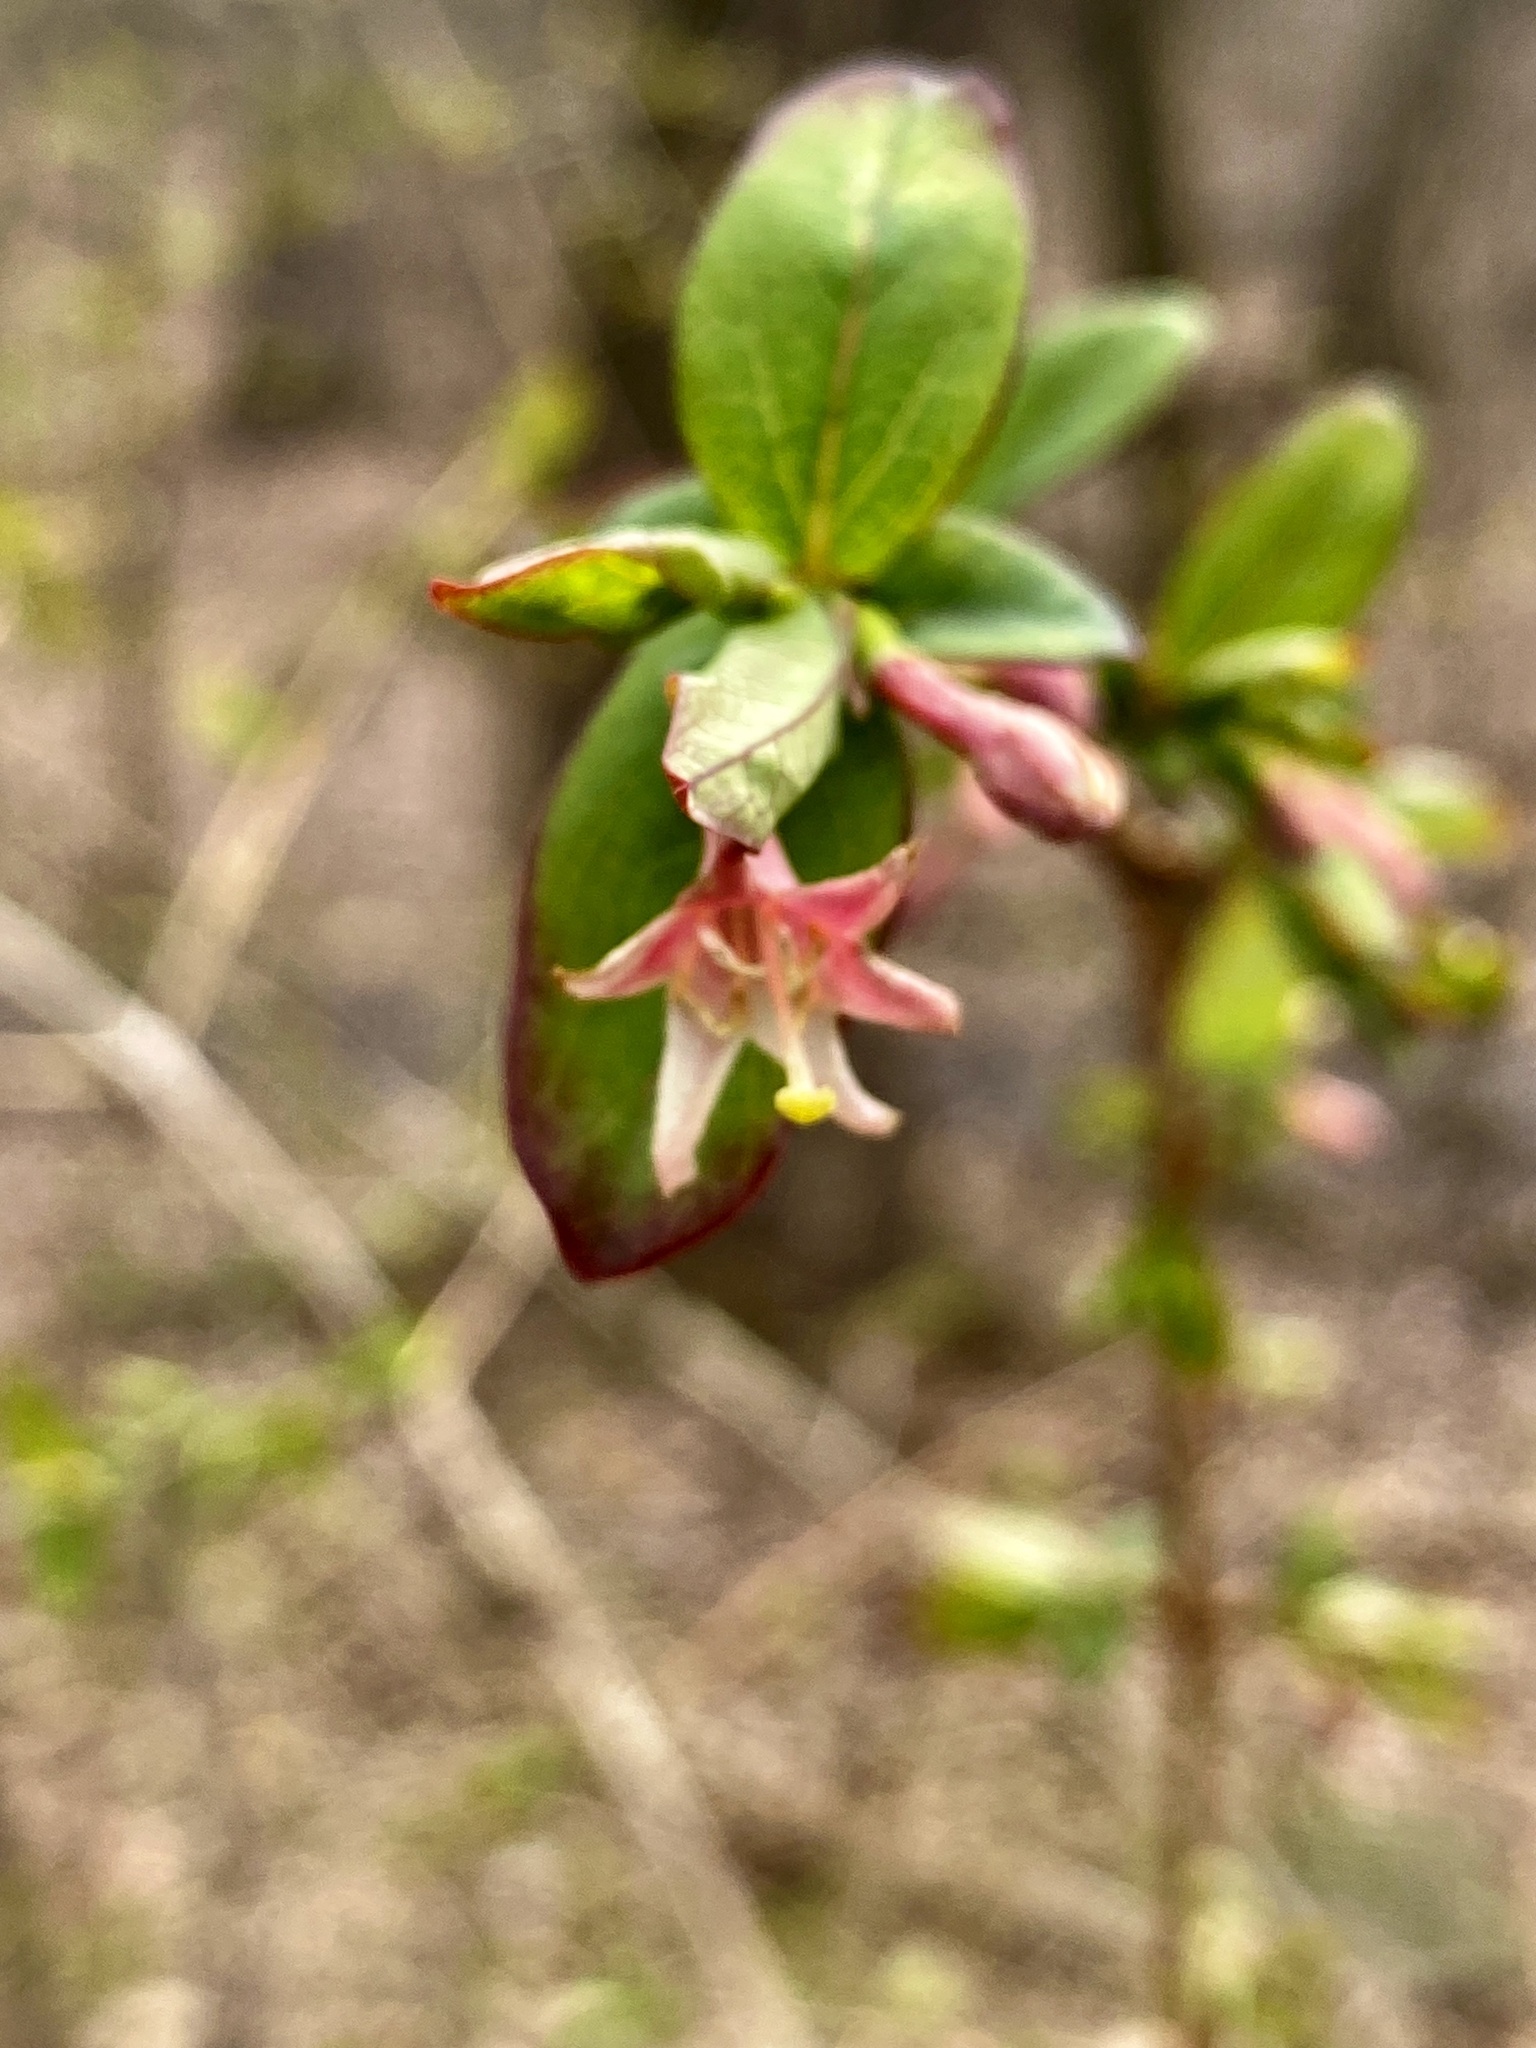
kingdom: Plantae
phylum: Tracheophyta
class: Magnoliopsida
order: Dipsacales
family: Caprifoliaceae
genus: Lonicera
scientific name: Lonicera gracilipes
